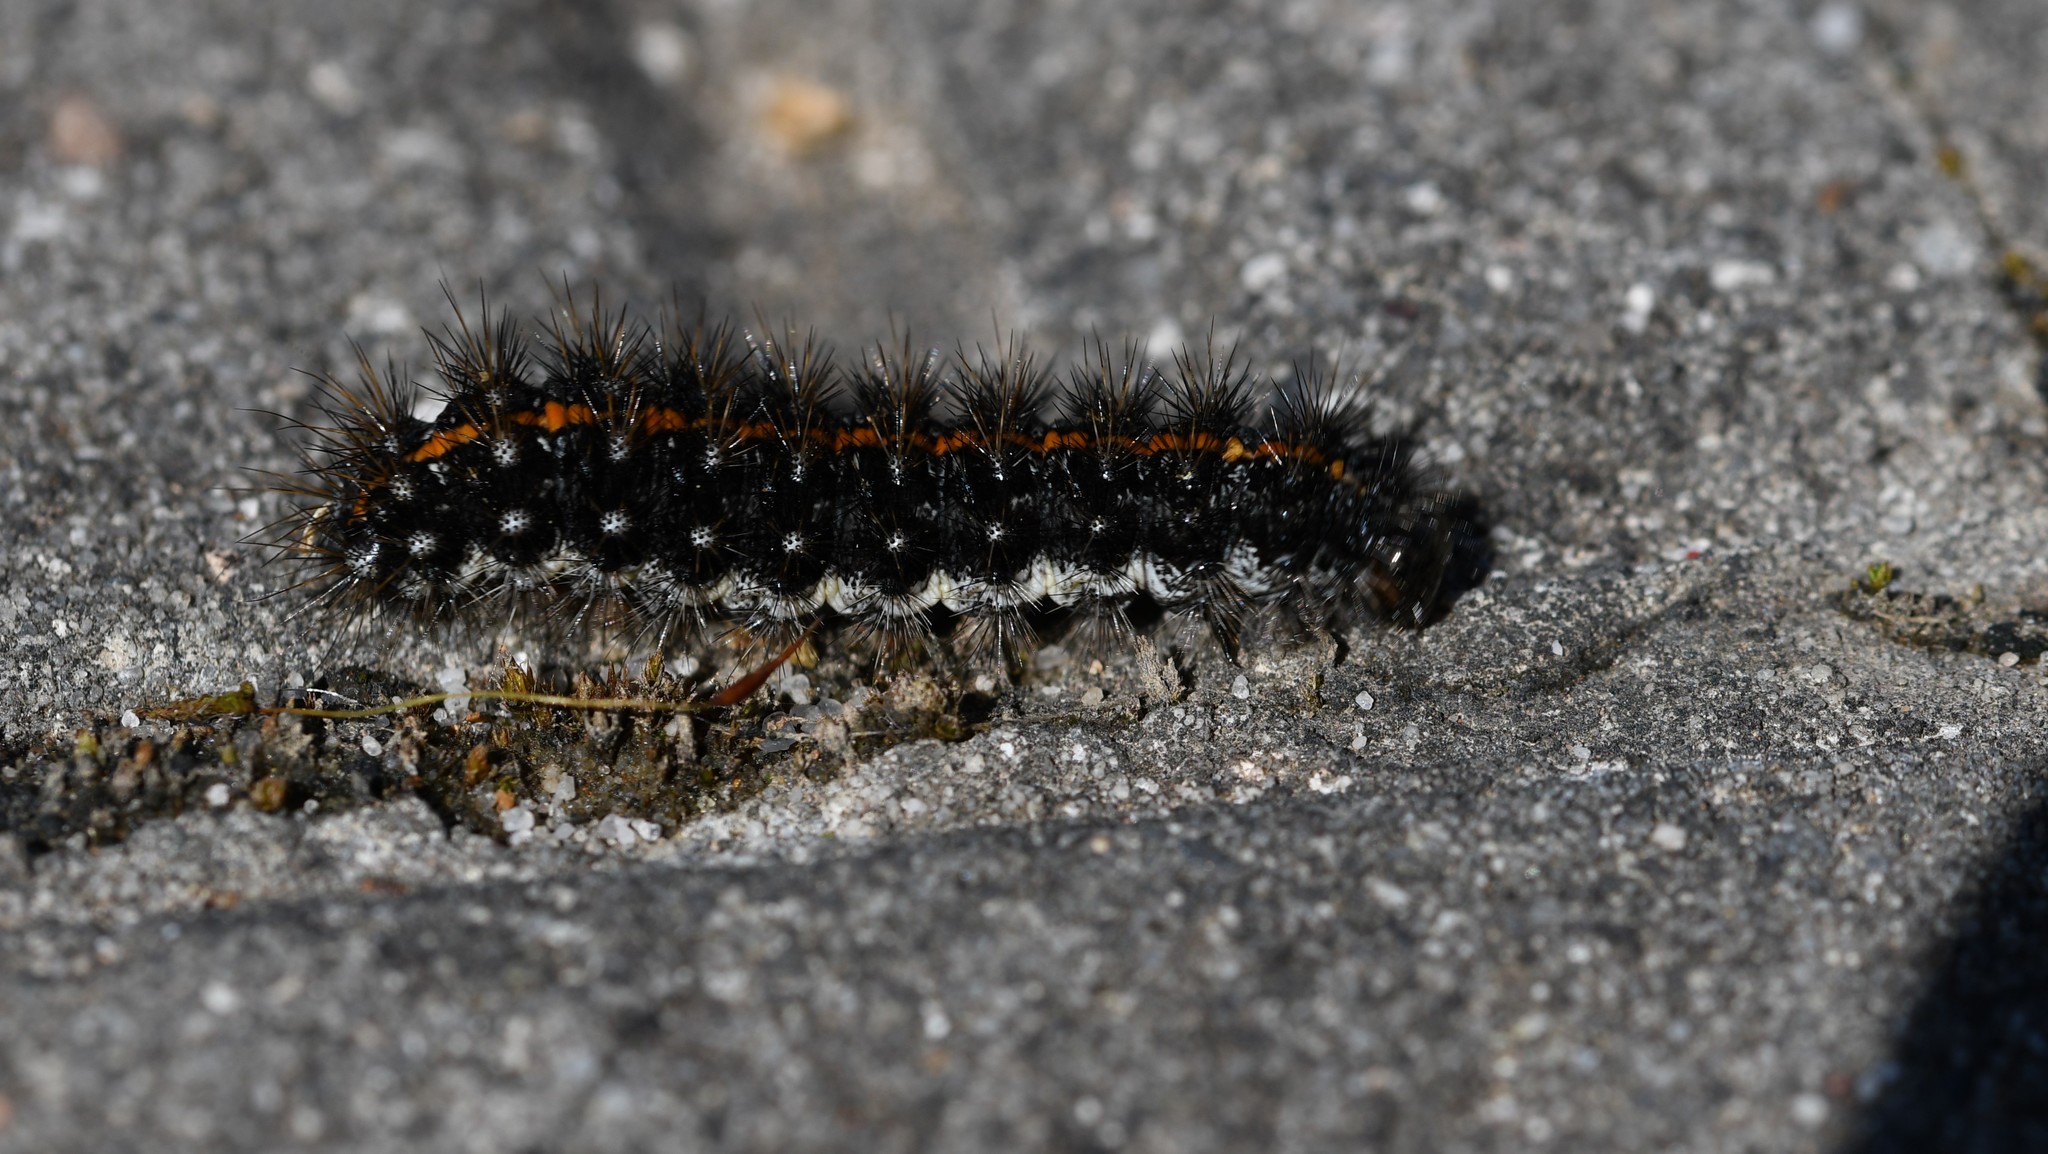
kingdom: Animalia
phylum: Arthropoda
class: Insecta
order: Lepidoptera
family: Erebidae
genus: Coscinia
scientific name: Coscinia Spiris striata
